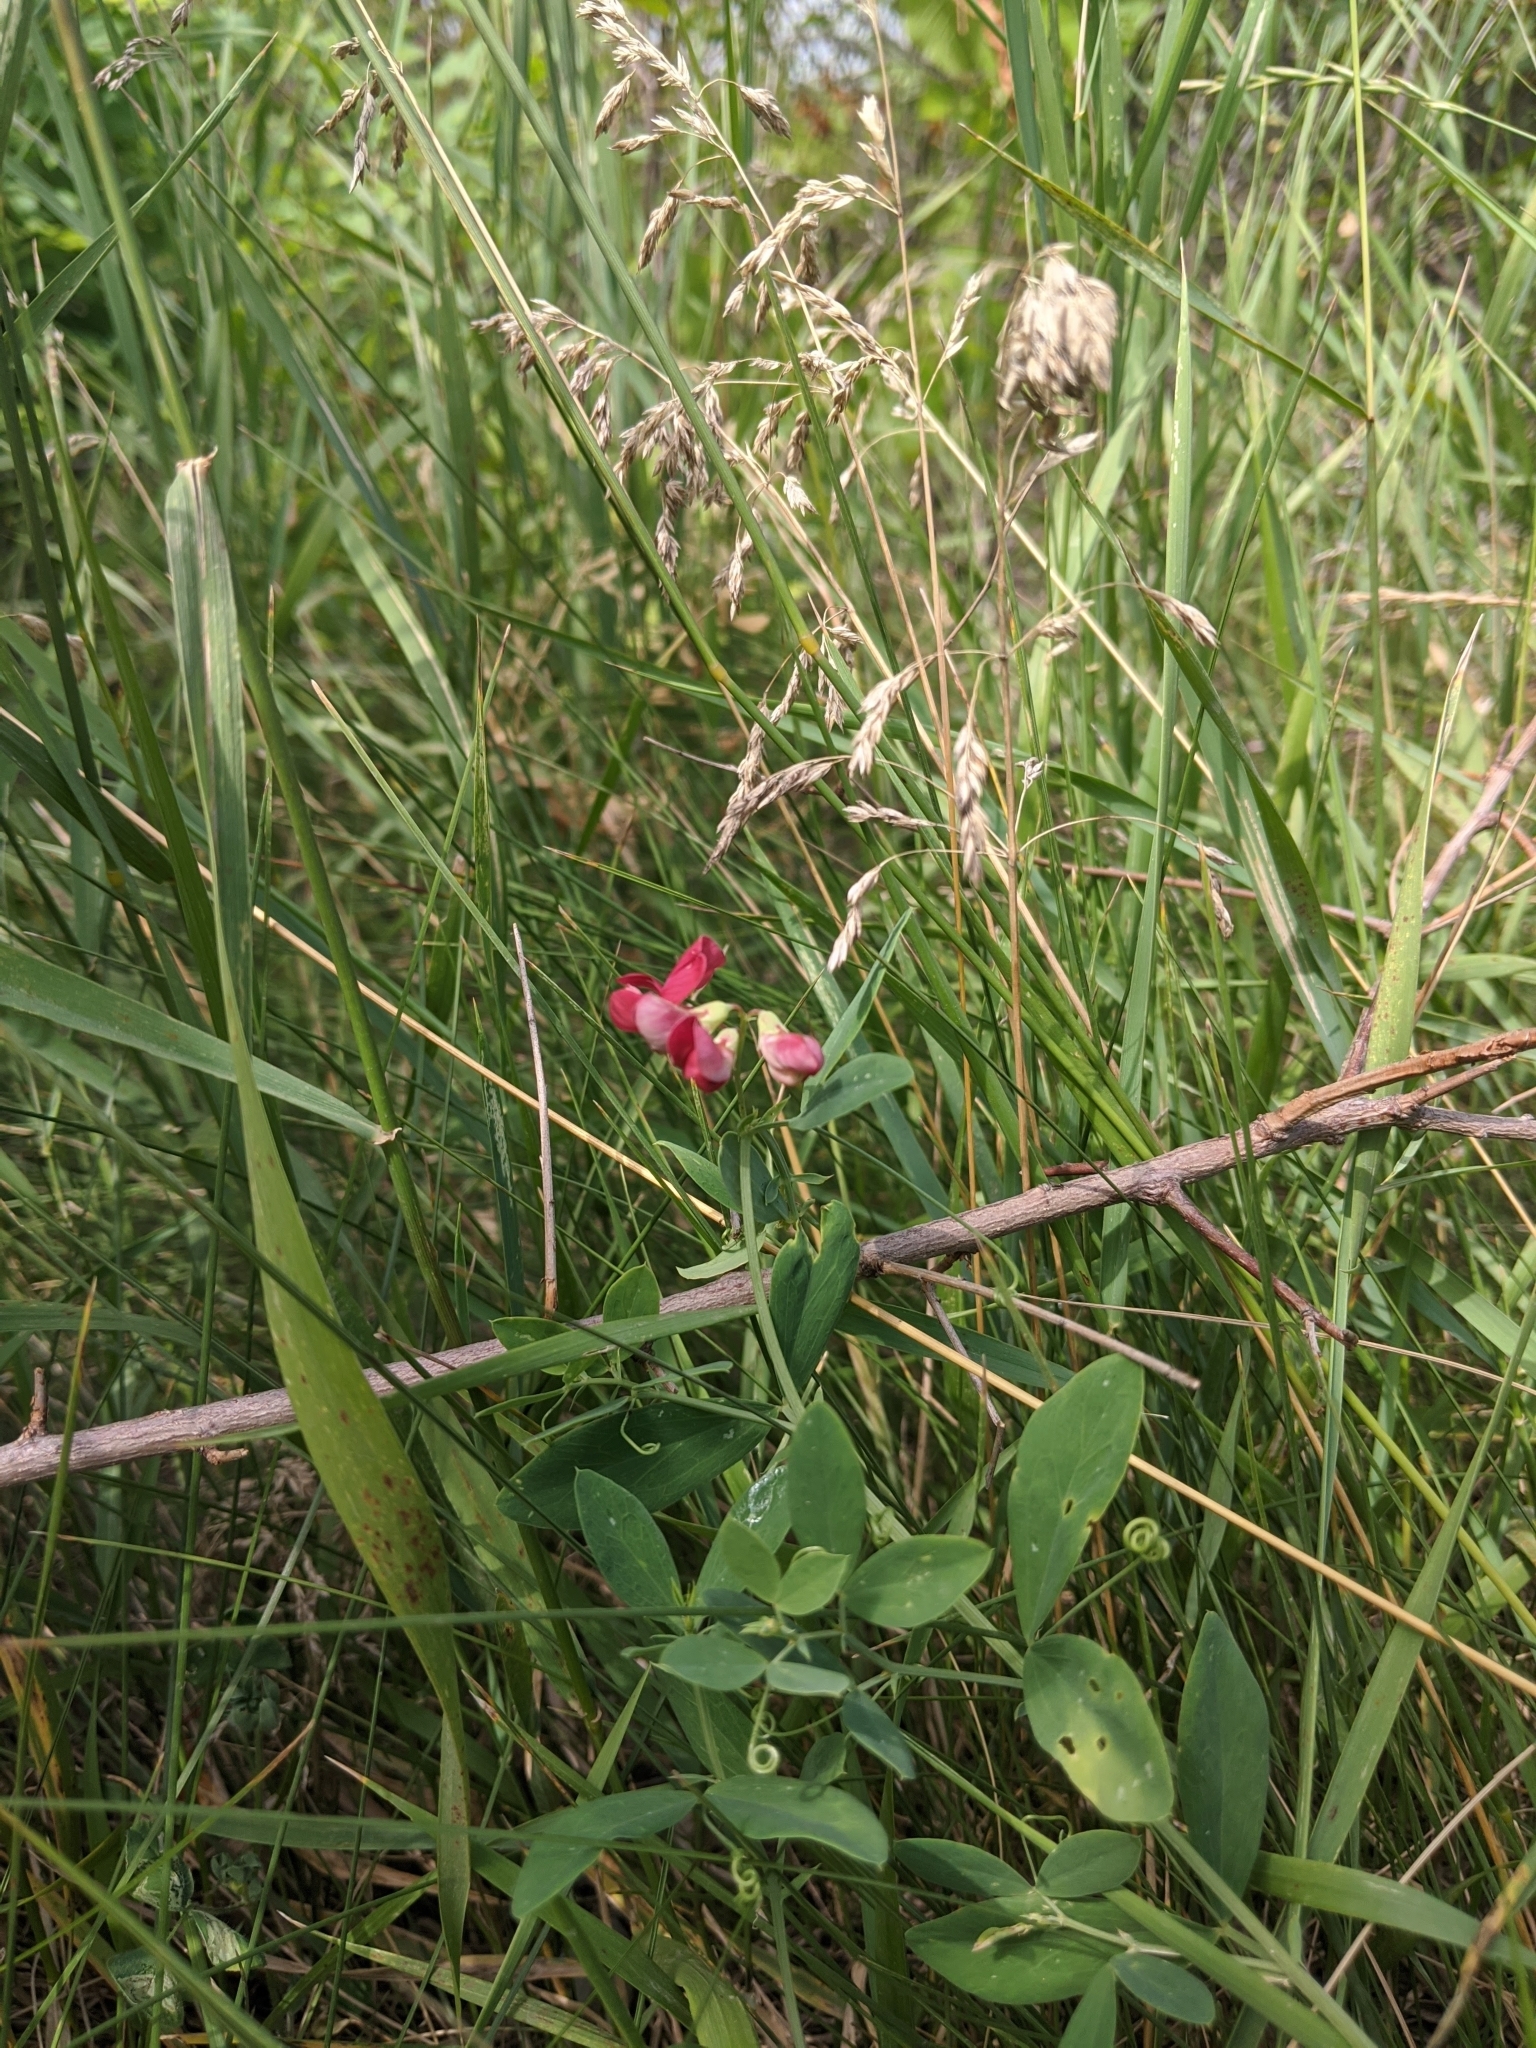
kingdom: Plantae
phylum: Tracheophyta
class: Magnoliopsida
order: Fabales
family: Fabaceae
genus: Lathyrus
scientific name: Lathyrus tuberosus
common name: Tuberous pea
